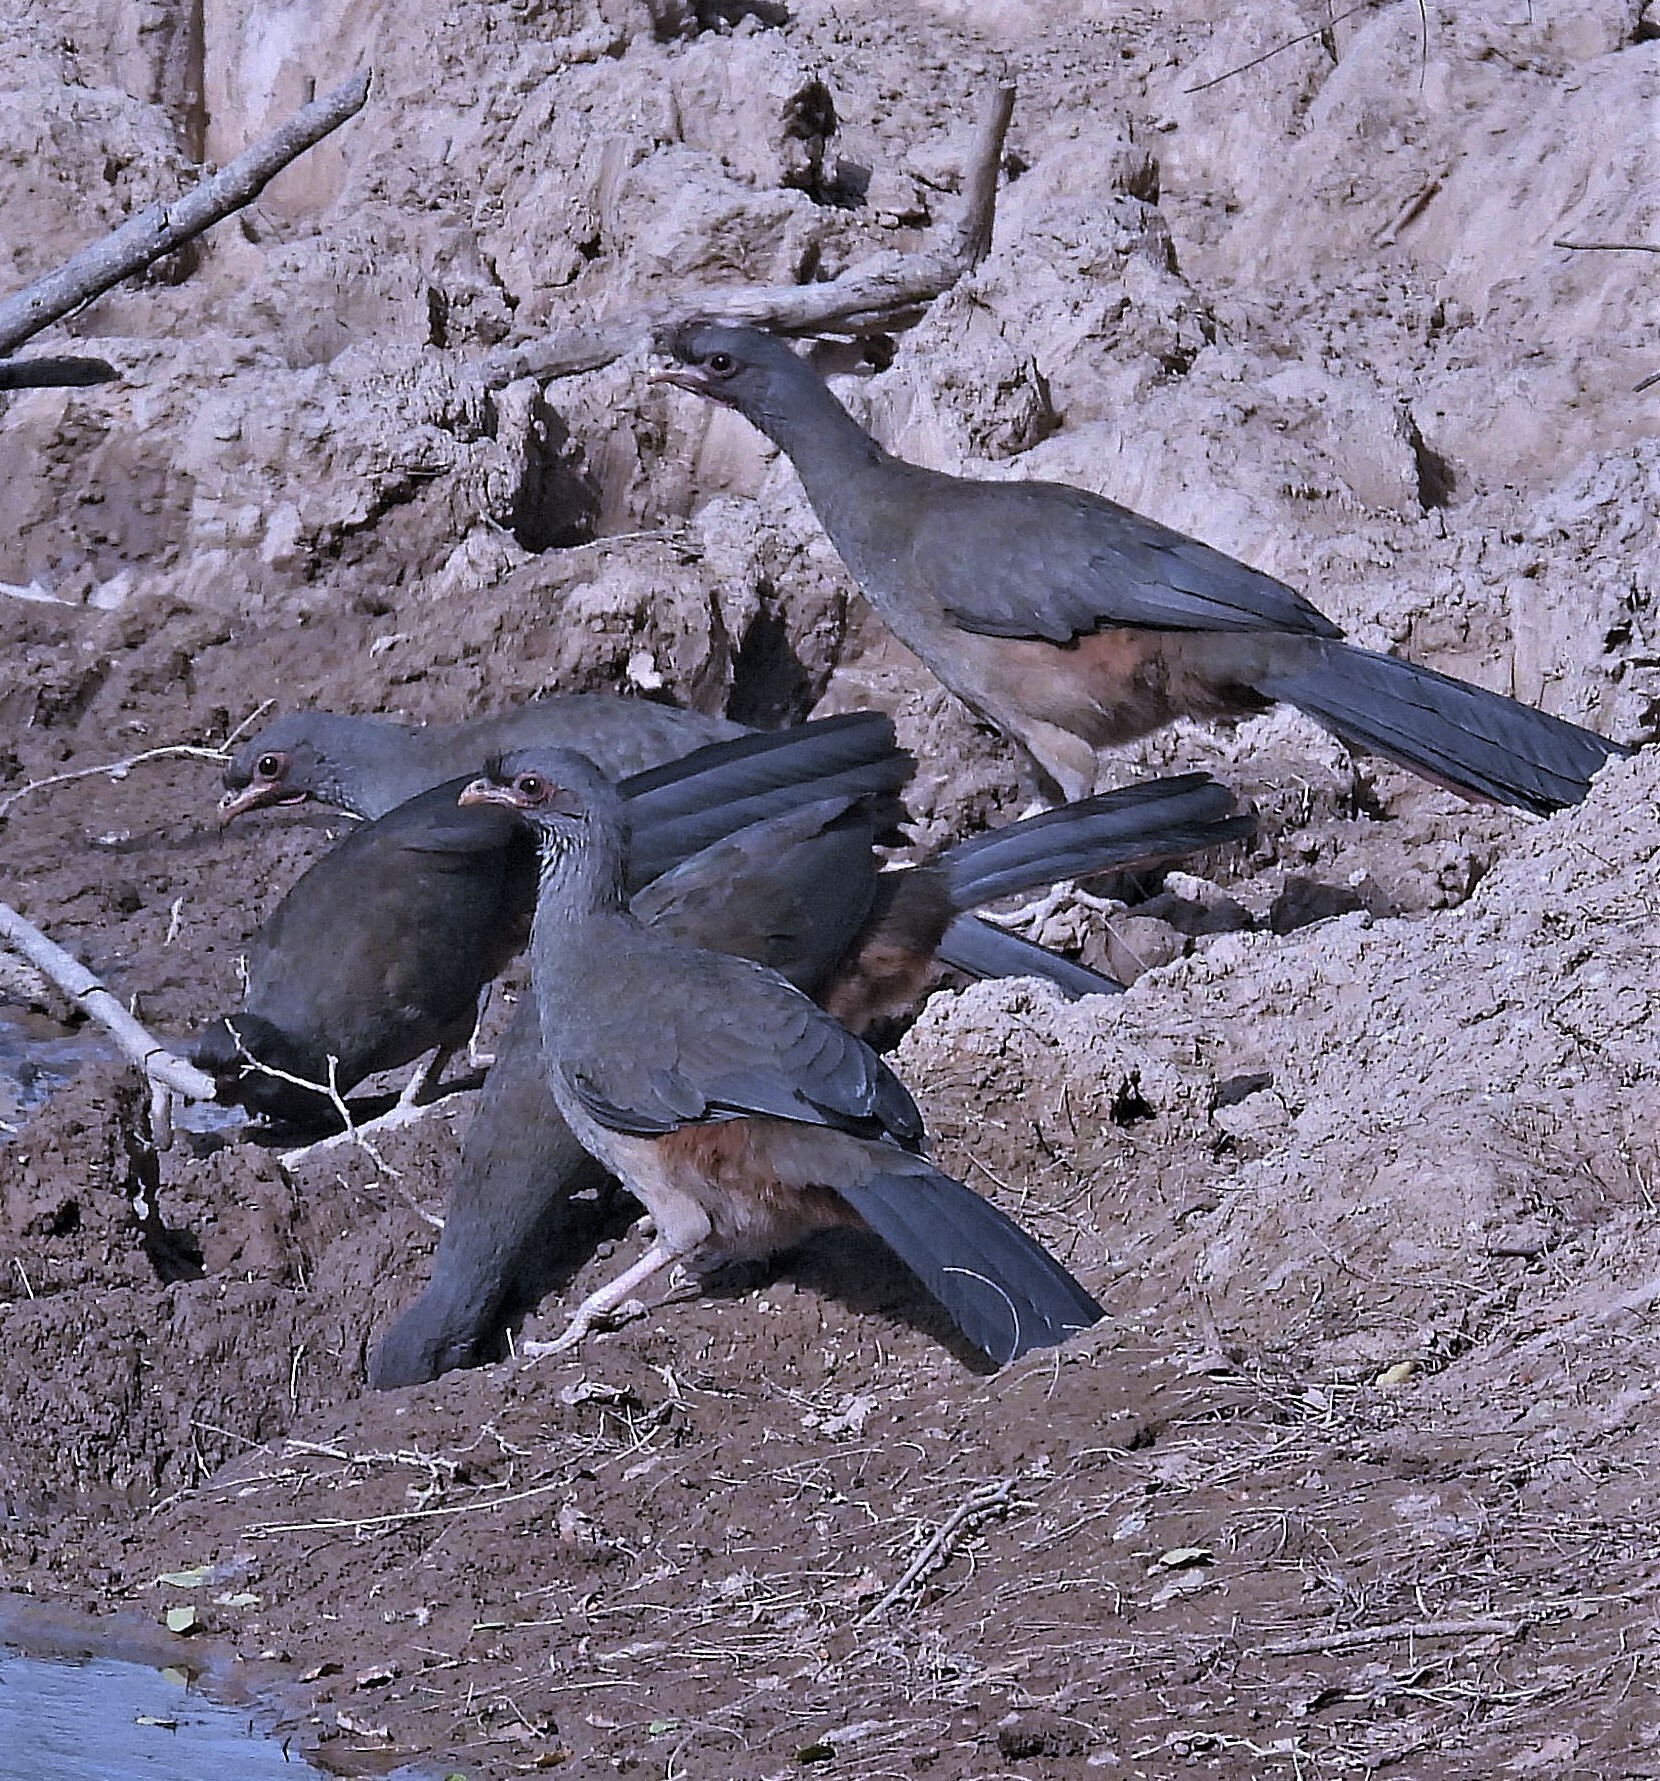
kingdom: Animalia
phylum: Chordata
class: Aves
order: Galliformes
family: Cracidae
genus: Ortalis
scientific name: Ortalis canicollis
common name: Chaco chachalaca
